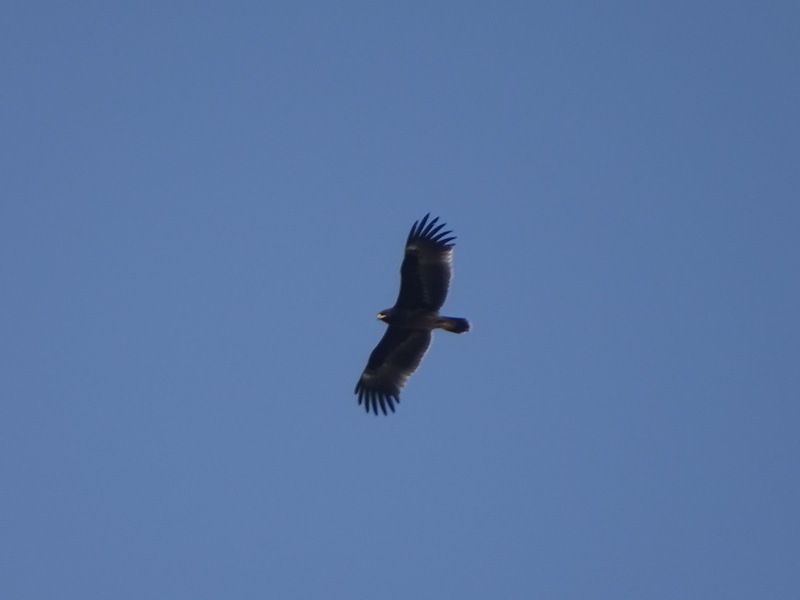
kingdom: Animalia
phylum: Chordata
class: Aves
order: Accipitriformes
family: Accipitridae
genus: Aquila
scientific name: Aquila clanga
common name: Greater spotted eagle
